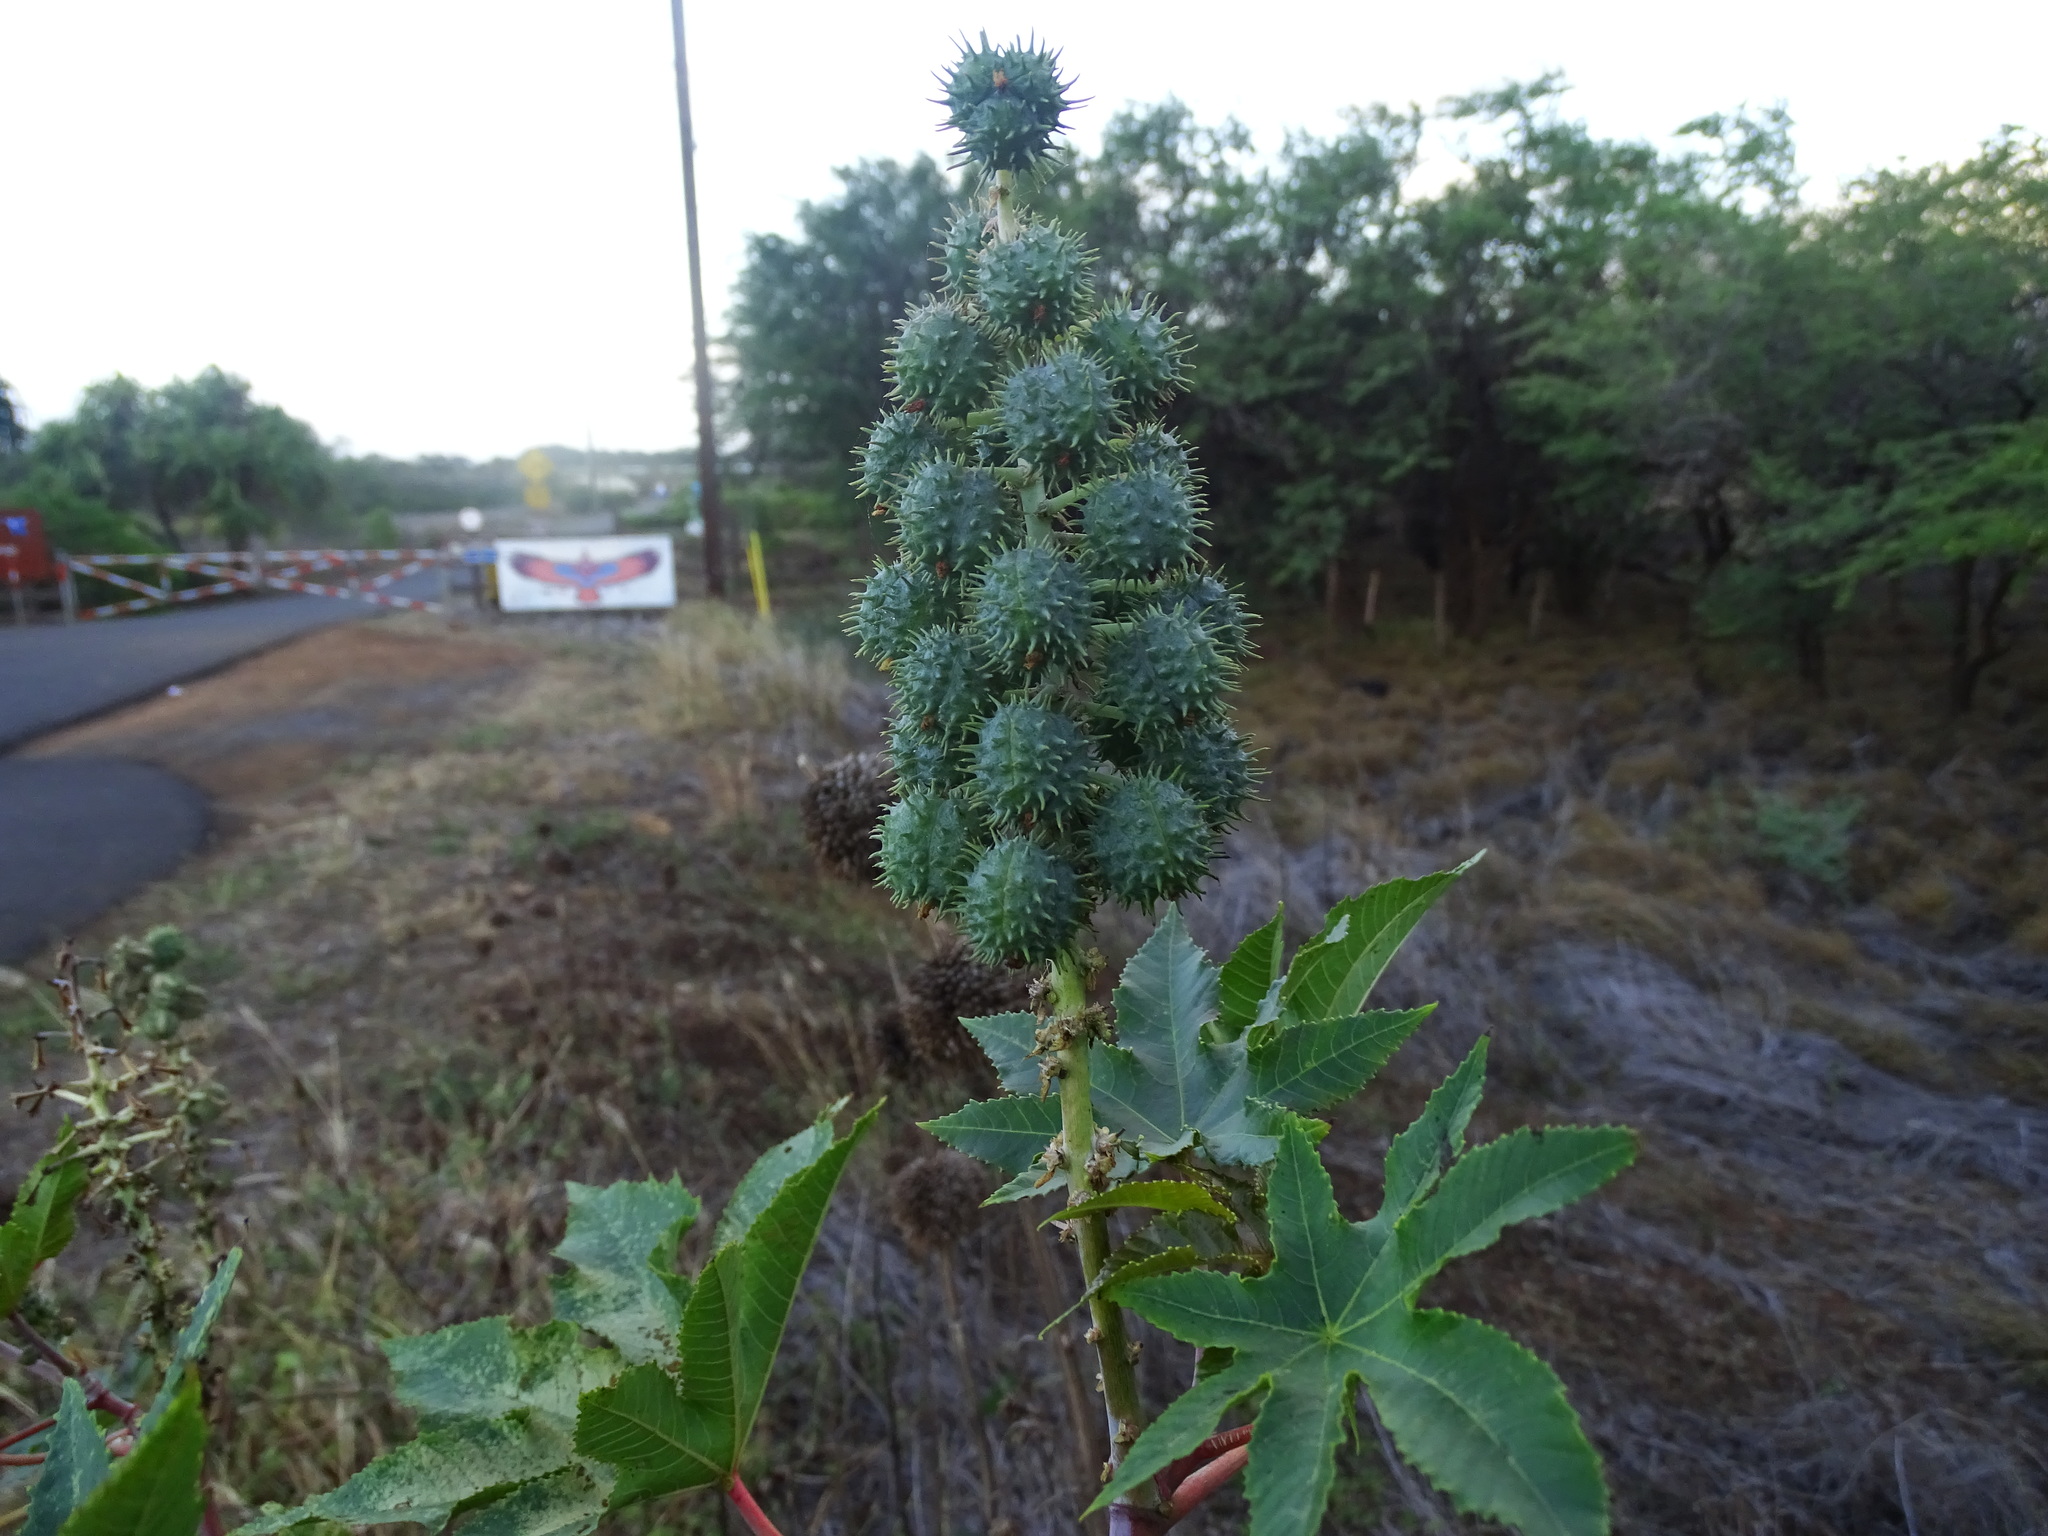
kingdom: Plantae
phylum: Tracheophyta
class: Magnoliopsida
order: Malpighiales
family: Euphorbiaceae
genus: Ricinus
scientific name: Ricinus communis
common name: Castor-oil-plant
